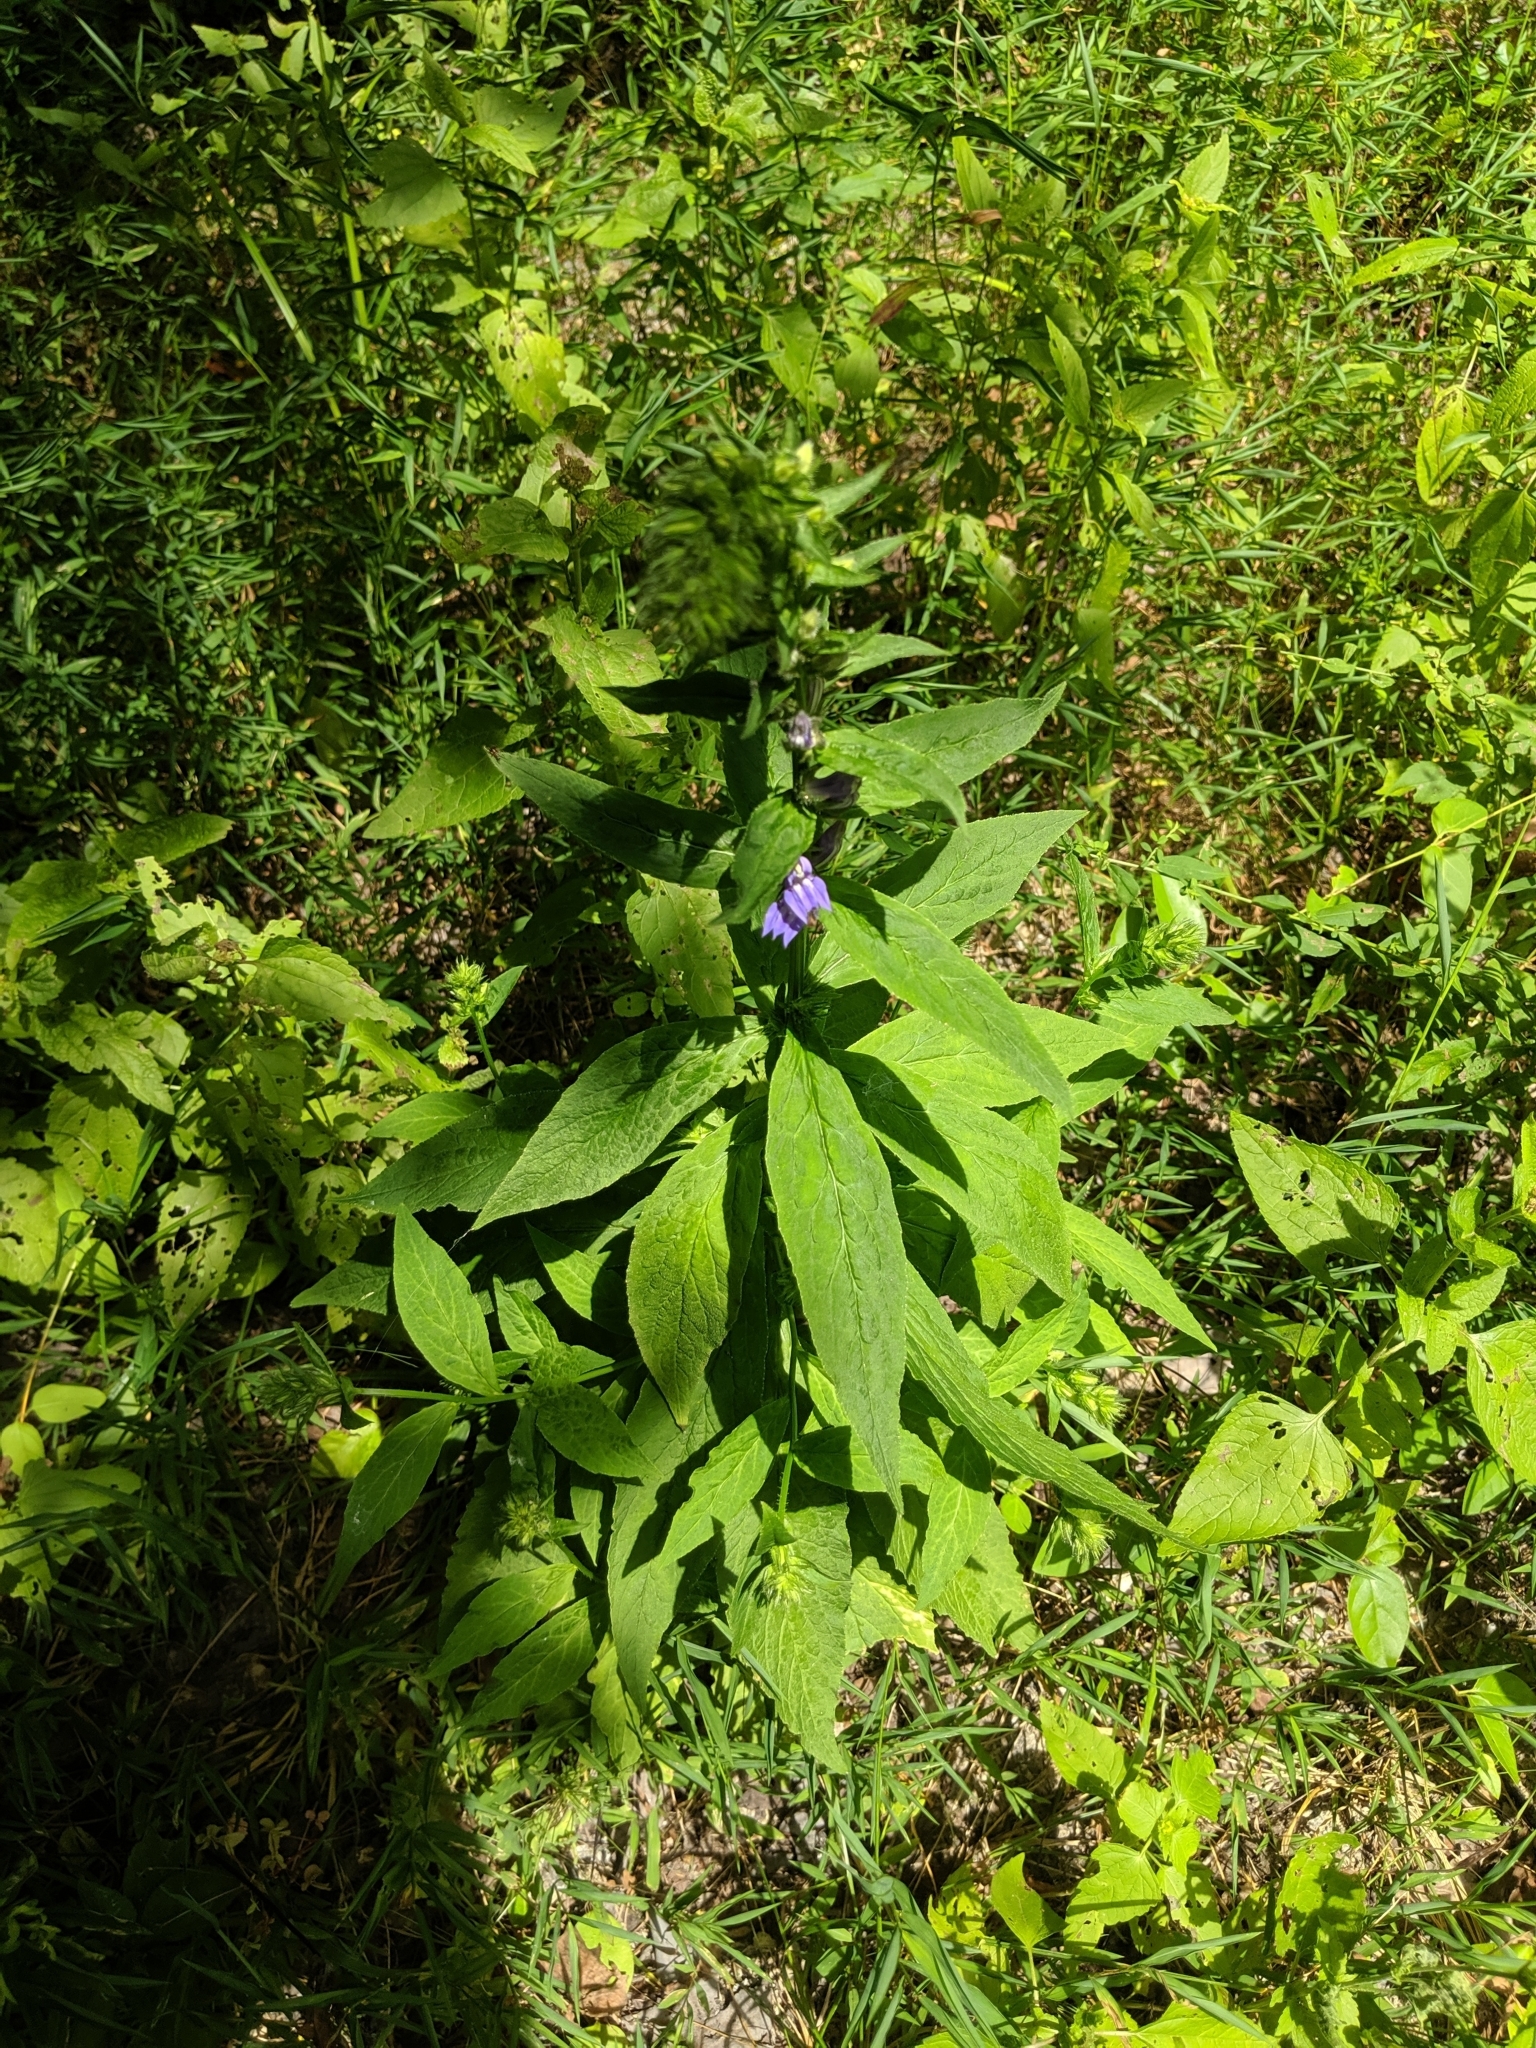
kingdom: Plantae
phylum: Tracheophyta
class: Magnoliopsida
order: Asterales
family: Campanulaceae
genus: Lobelia
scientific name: Lobelia siphilitica
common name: Great lobelia
